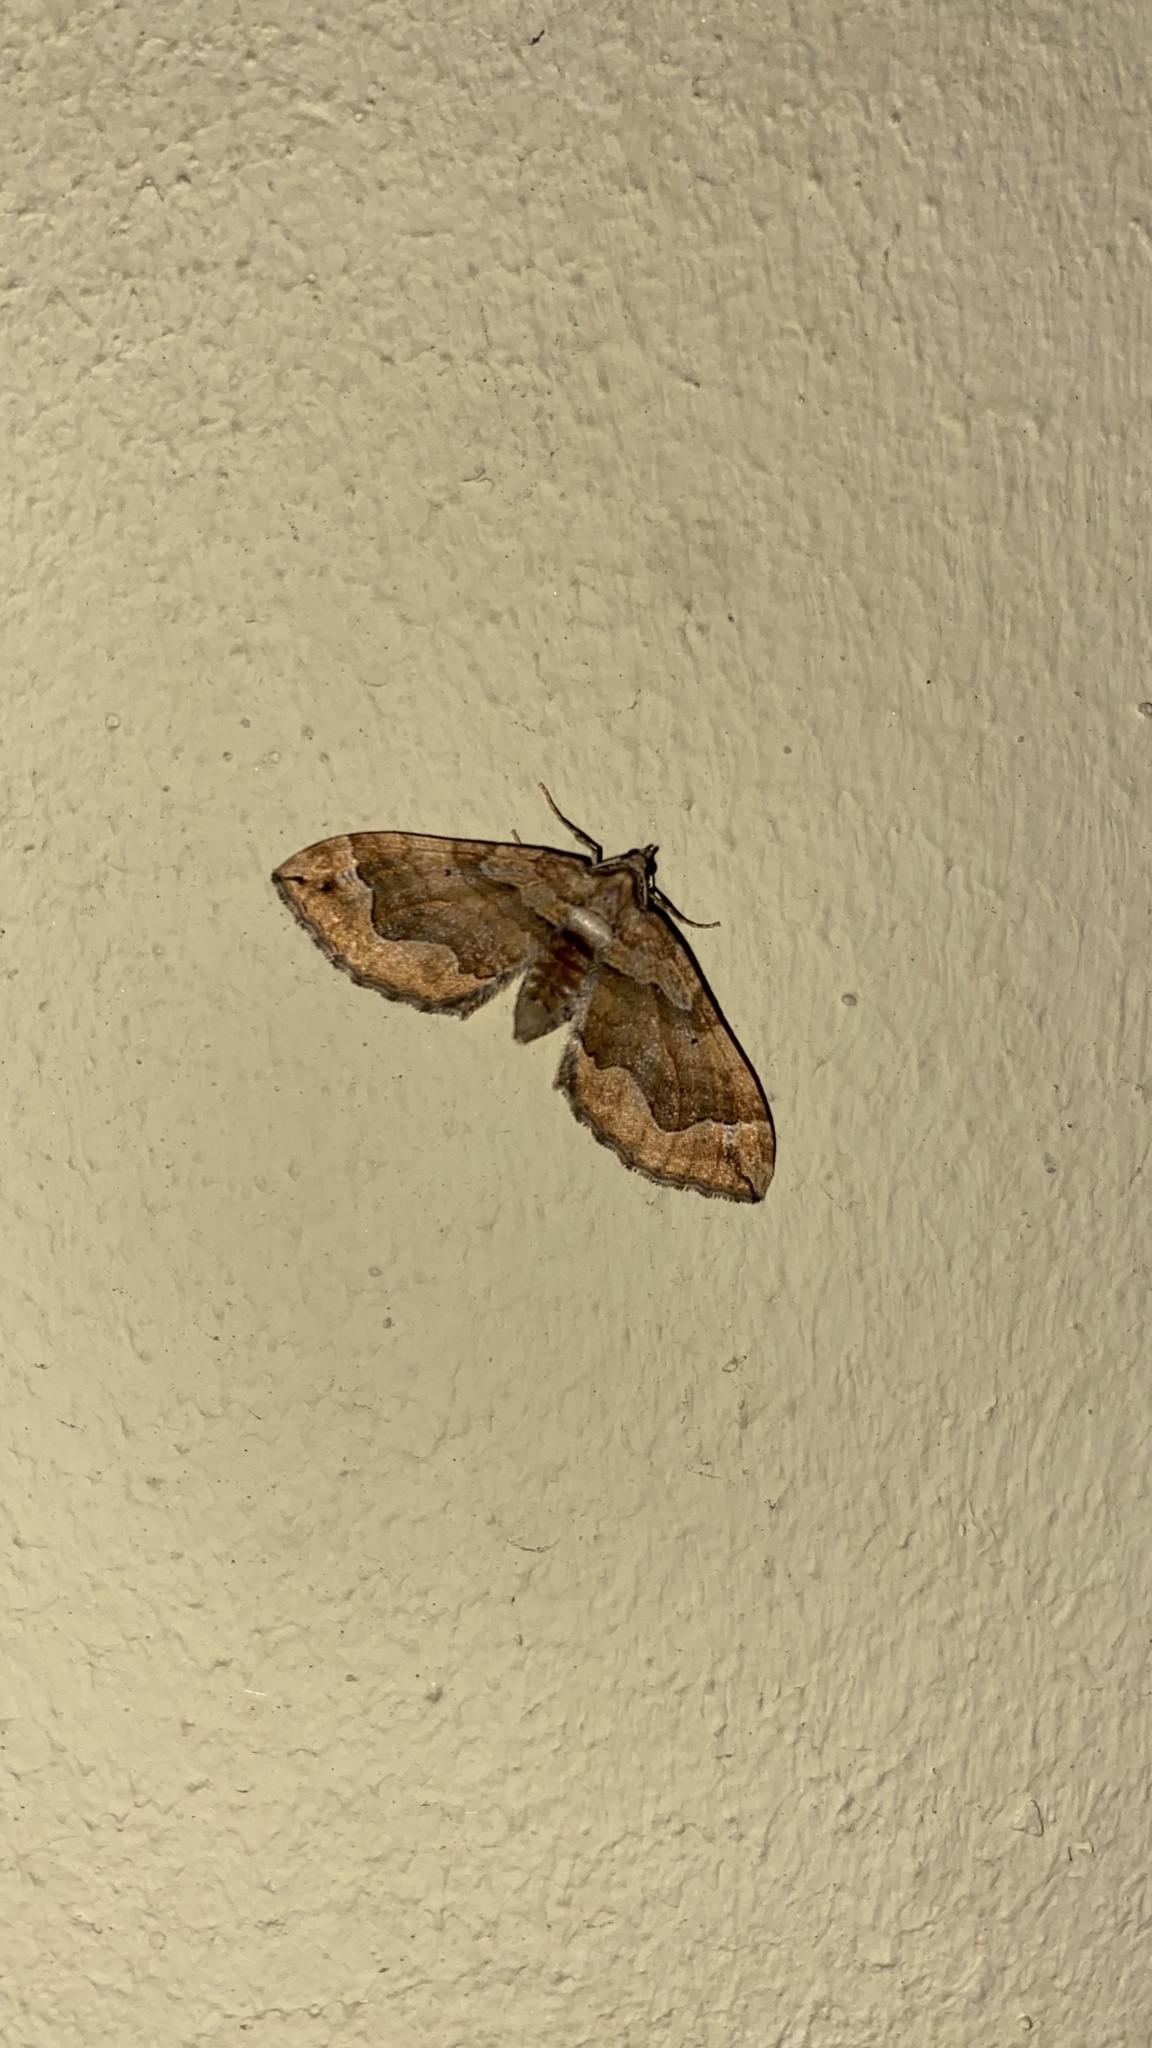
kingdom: Animalia
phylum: Arthropoda
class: Insecta
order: Lepidoptera
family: Geometridae
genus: Pelurga
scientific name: Pelurga comitata
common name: Dark spinach
